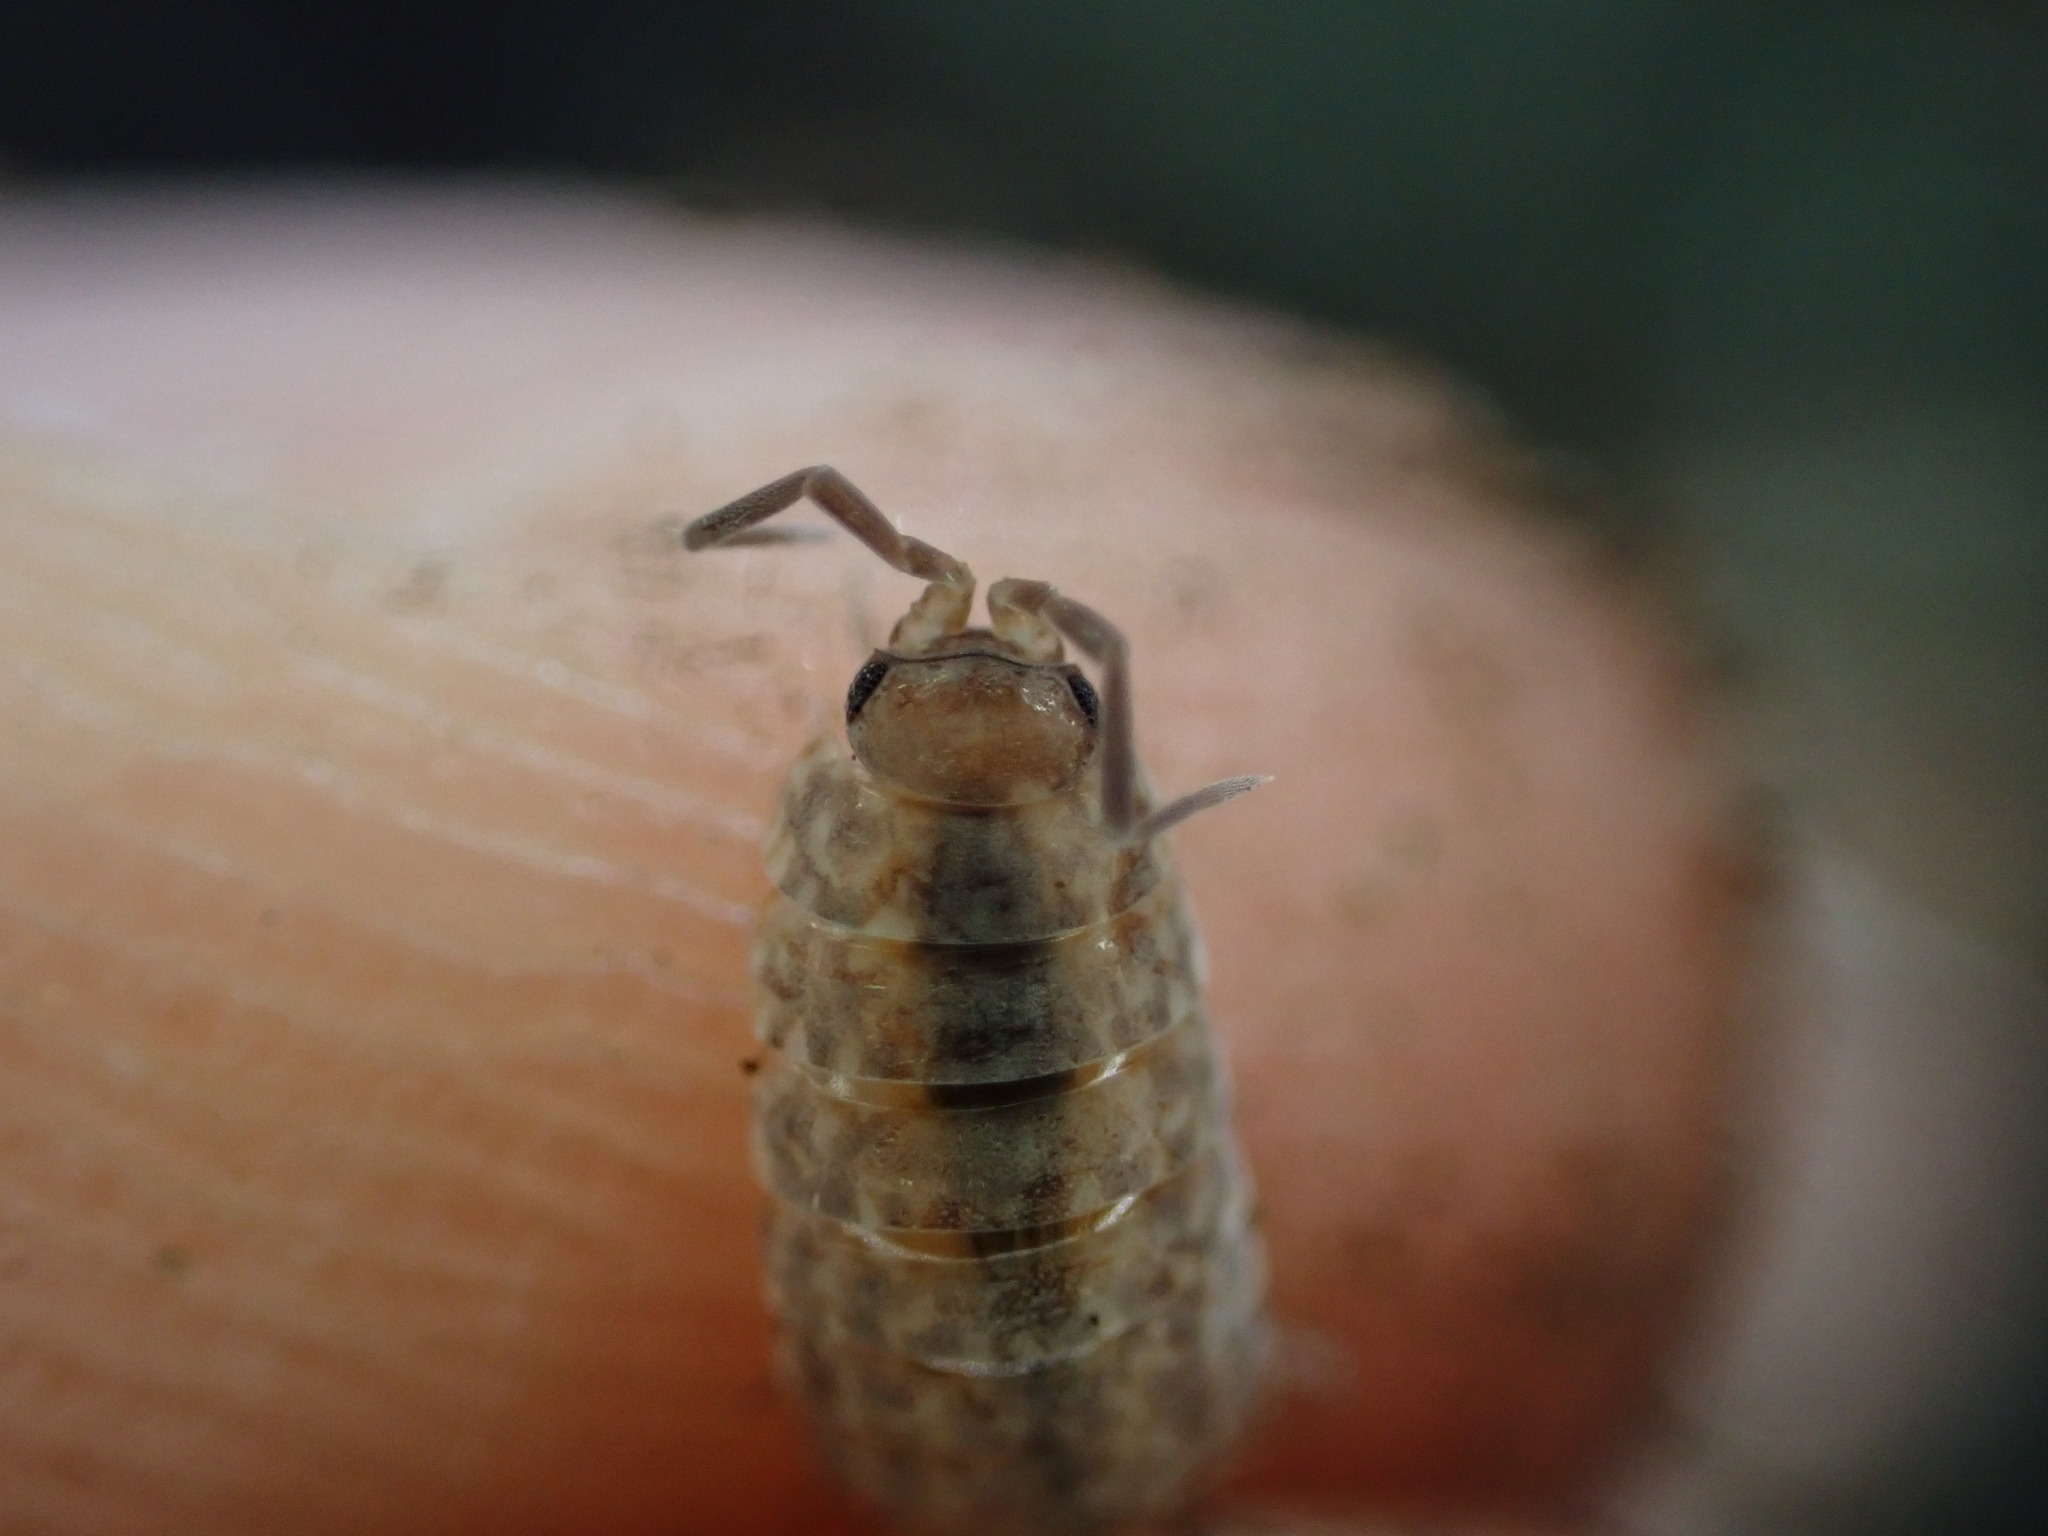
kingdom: Animalia
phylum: Arthropoda
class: Malacostraca
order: Isopoda
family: Porcellionidae
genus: Caeroplastes
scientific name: Caeroplastes porphyrivagus
